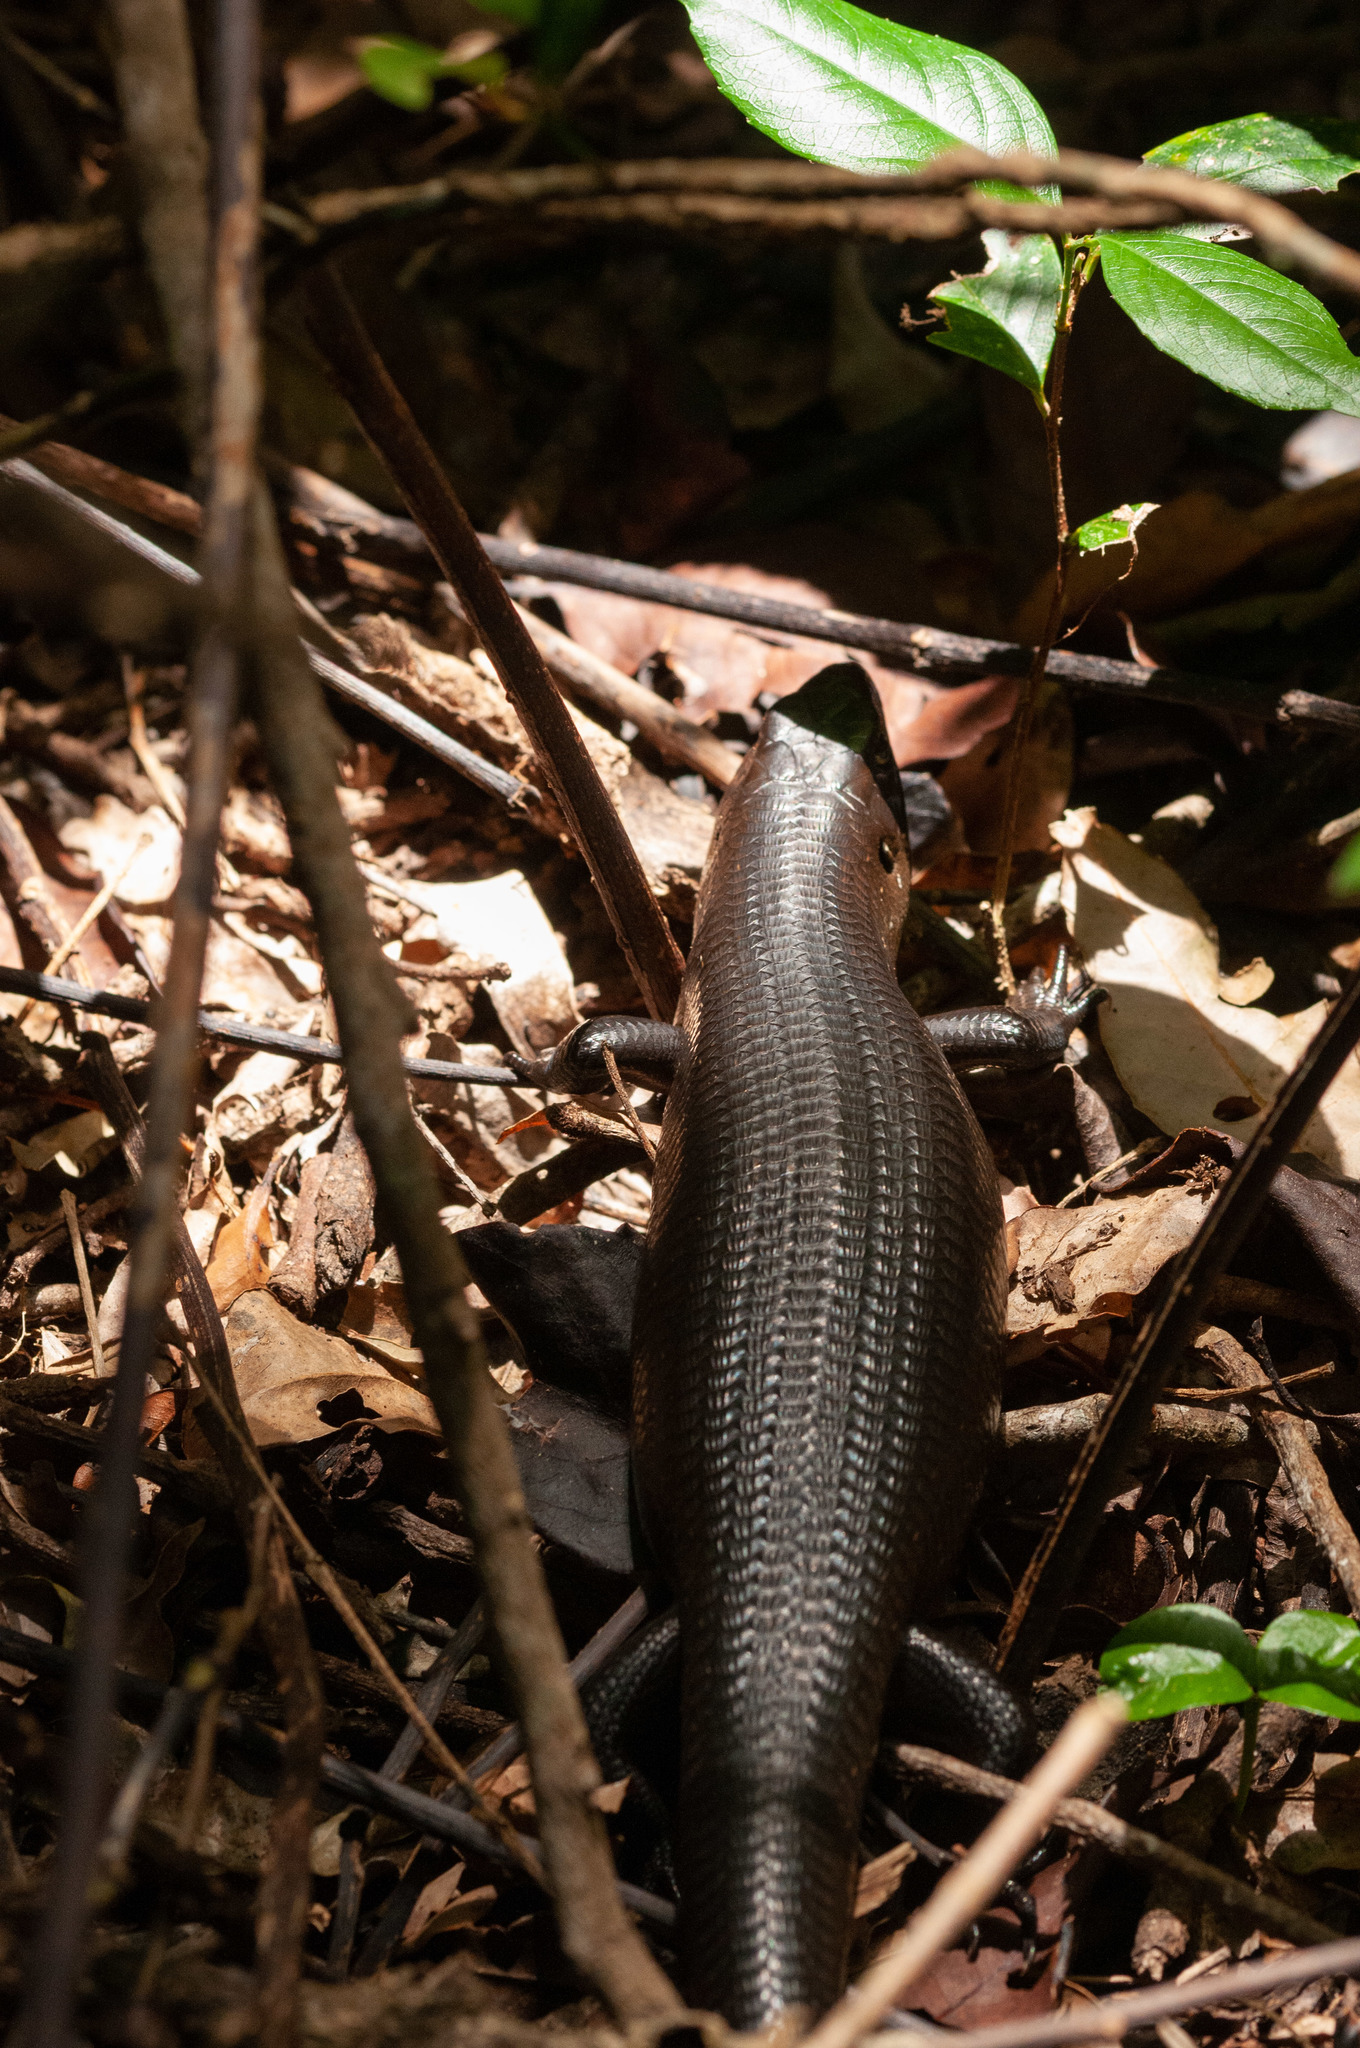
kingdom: Animalia
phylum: Chordata
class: Squamata
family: Scincidae
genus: Bellatorias
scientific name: Bellatorias major
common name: Land mullet
